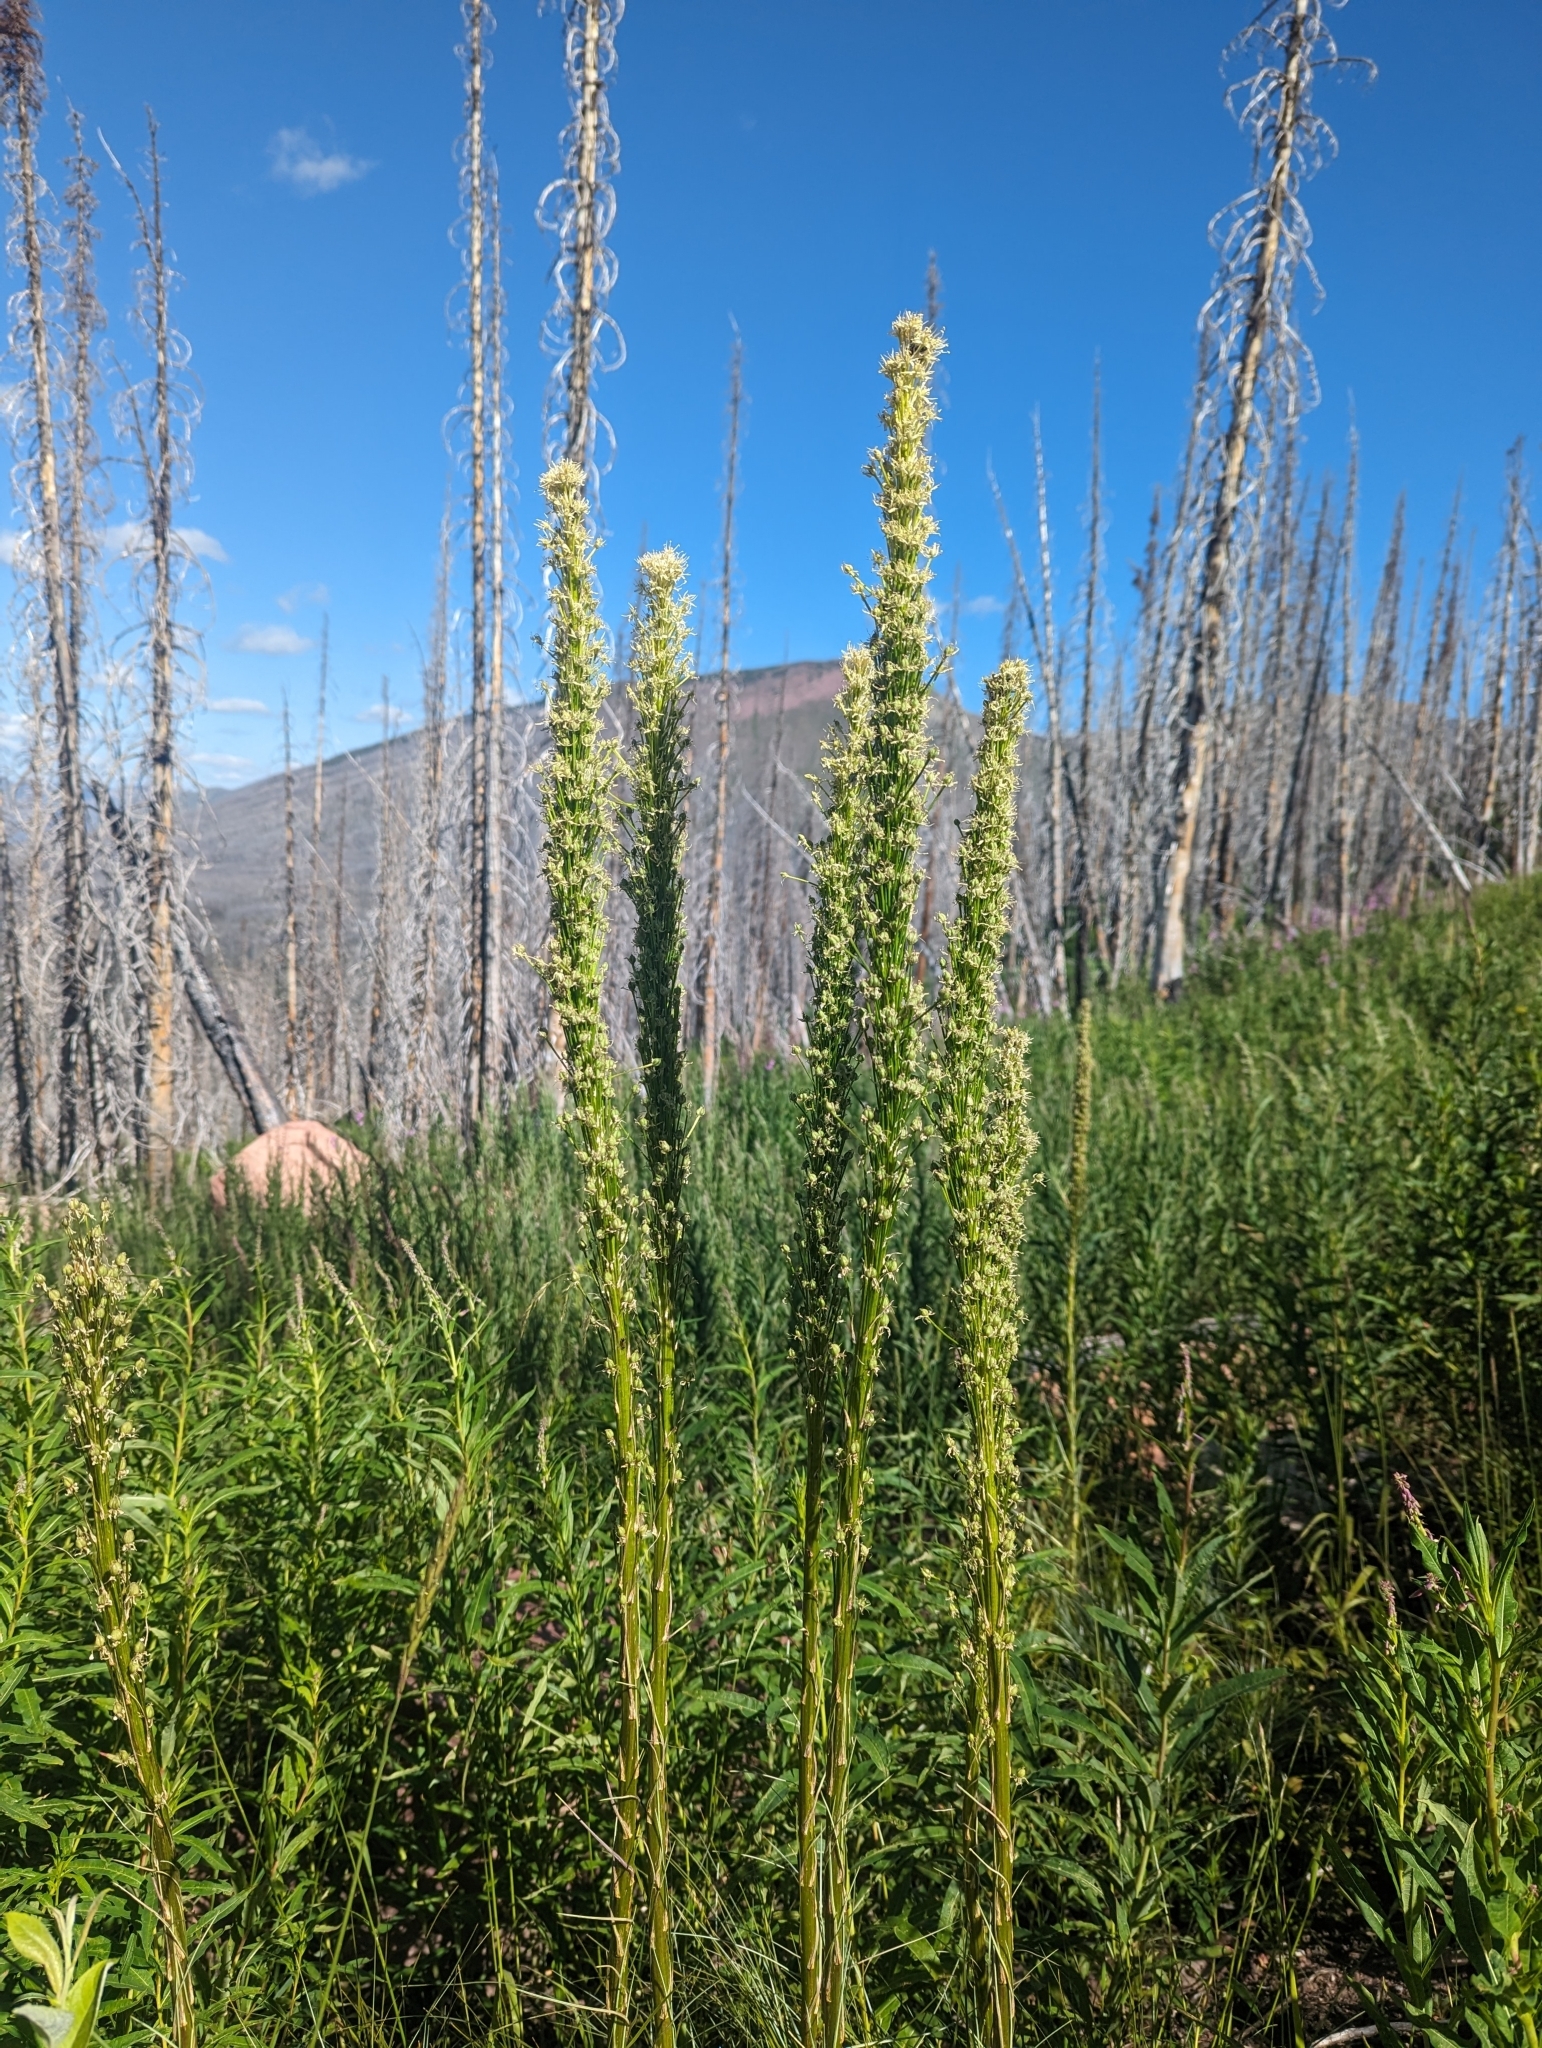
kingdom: Plantae
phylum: Tracheophyta
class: Liliopsida
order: Liliales
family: Melanthiaceae
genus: Xerophyllum
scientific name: Xerophyllum tenax
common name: Bear-grass
